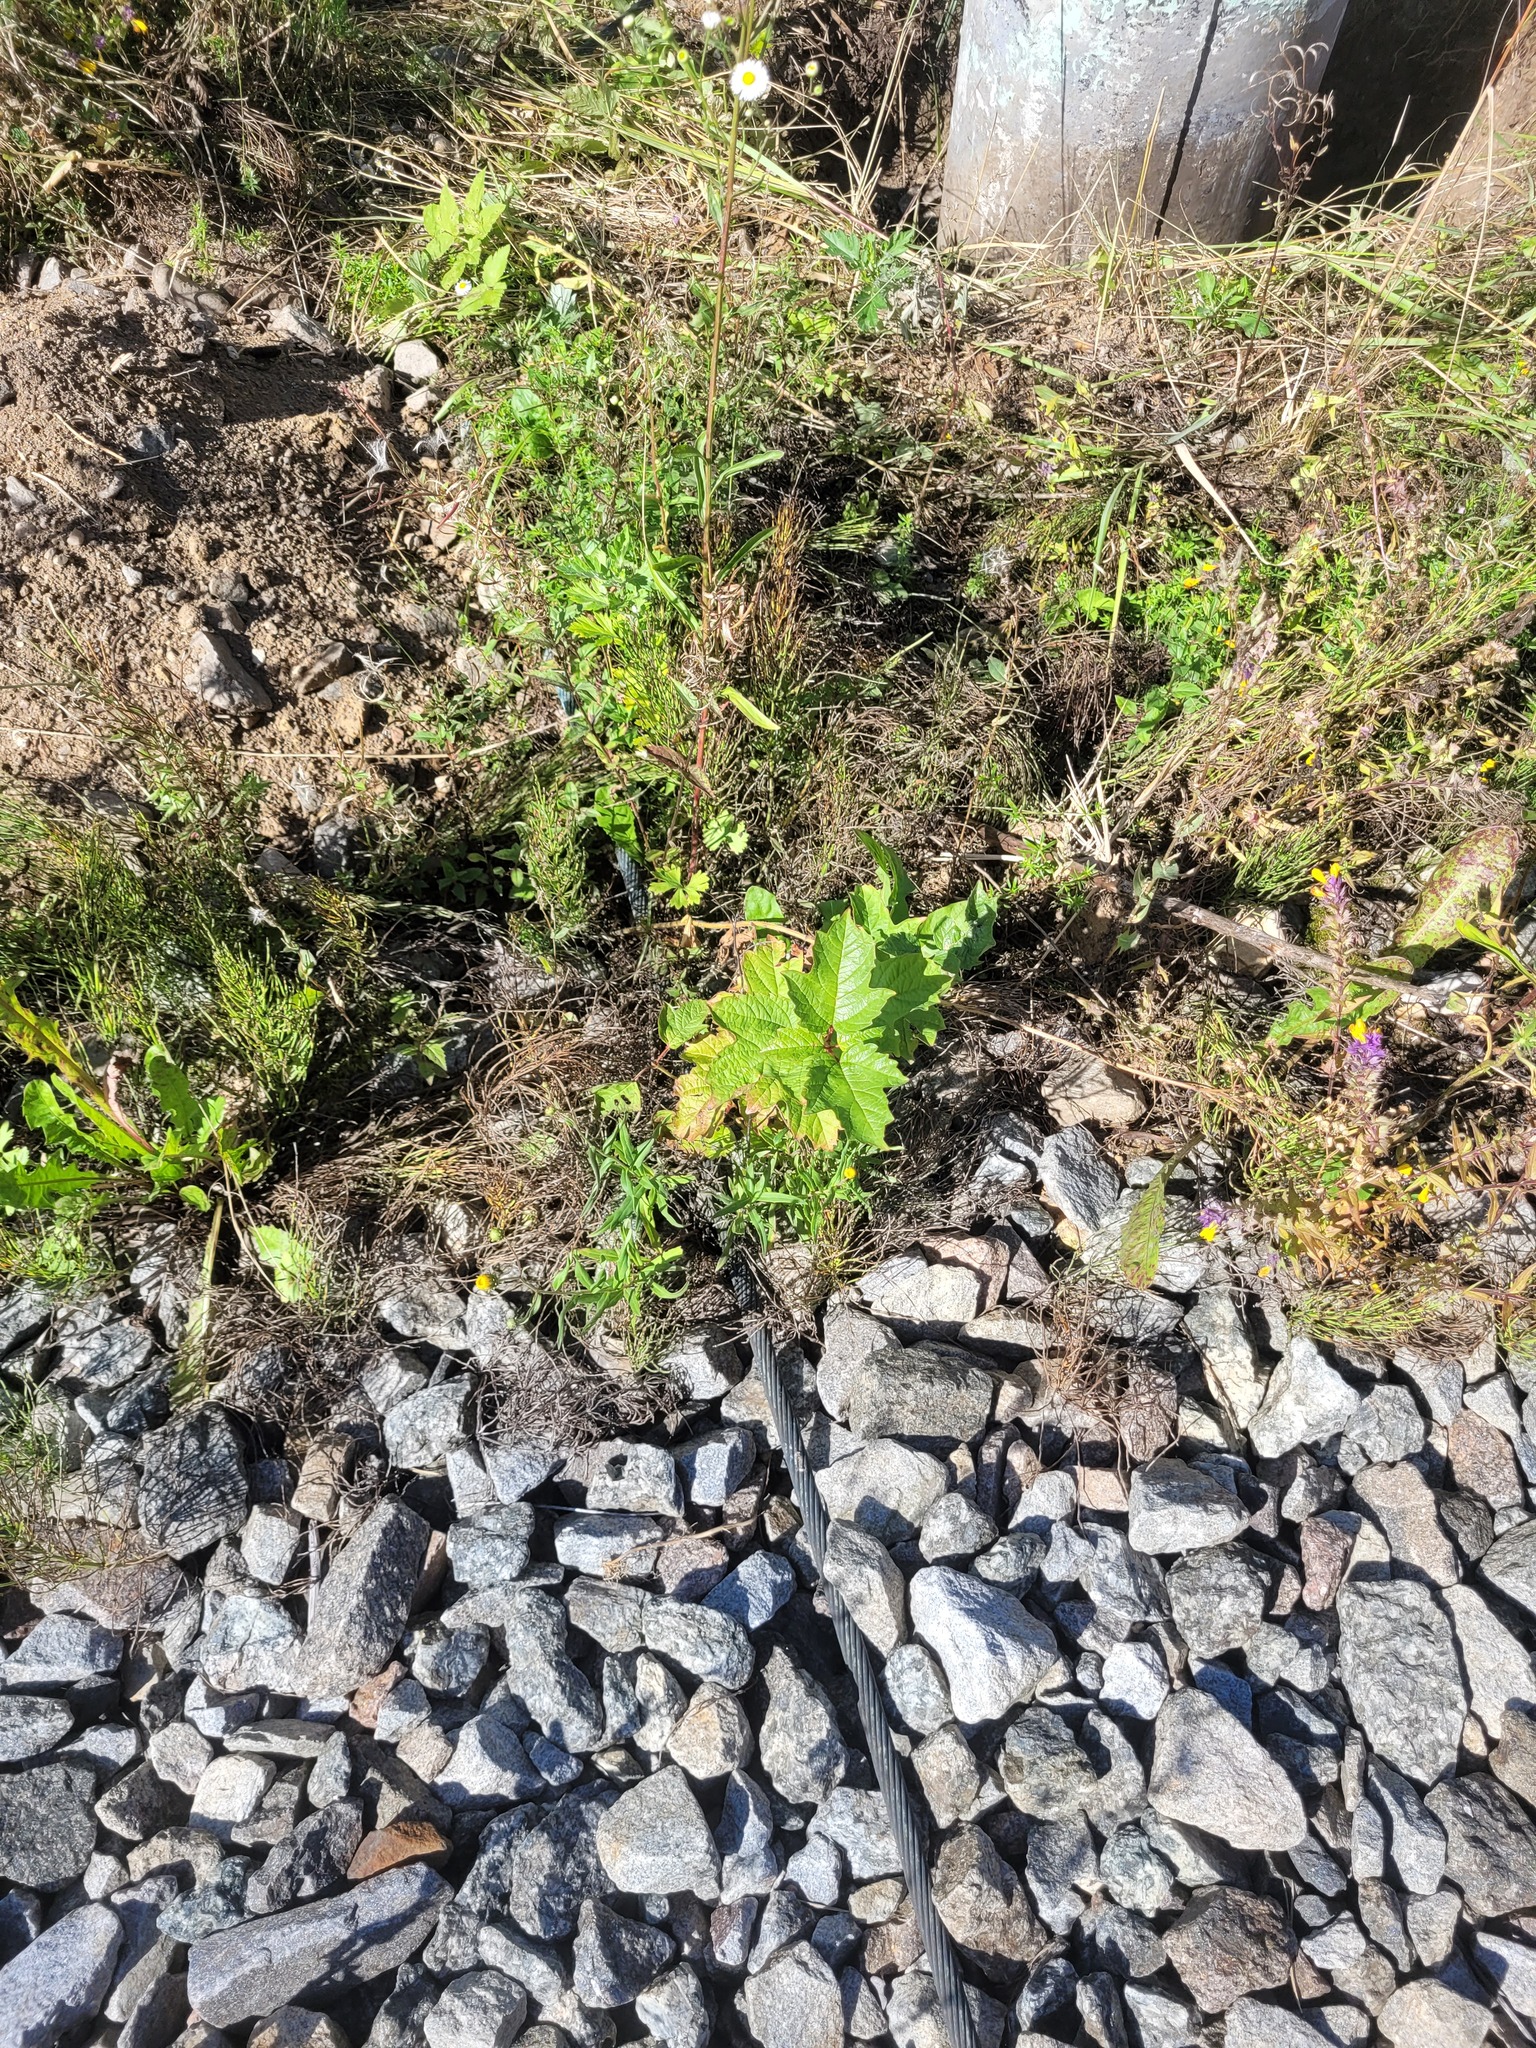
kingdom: Plantae
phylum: Tracheophyta
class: Magnoliopsida
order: Dipsacales
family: Viburnaceae
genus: Viburnum
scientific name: Viburnum opulus
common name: Guelder-rose
